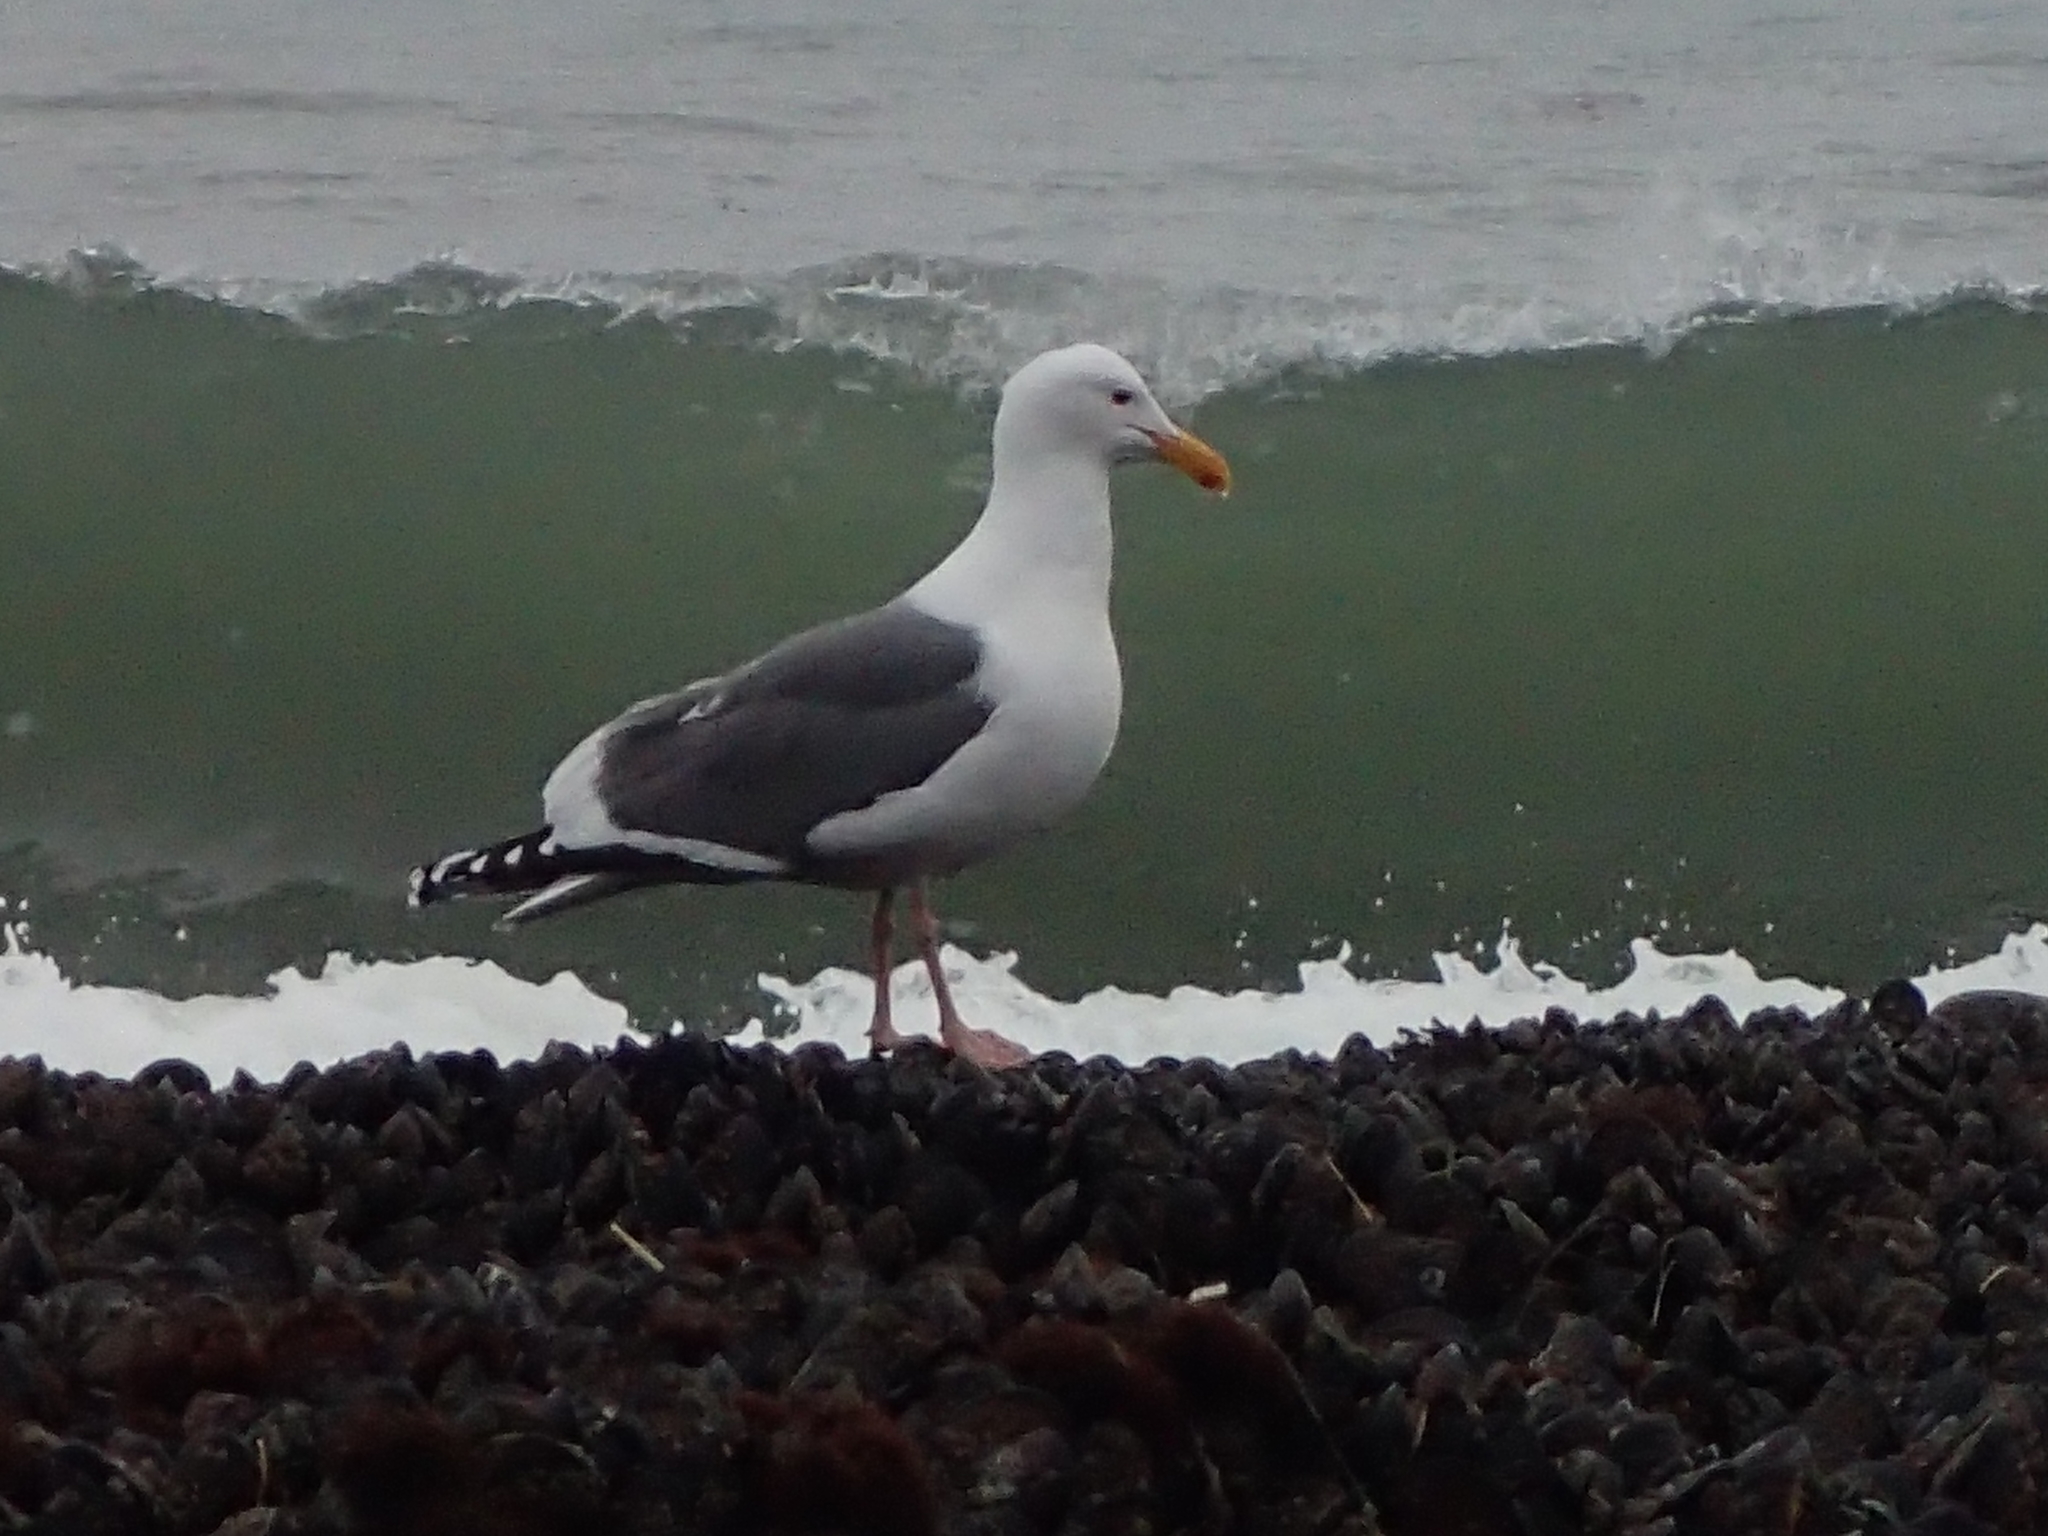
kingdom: Animalia
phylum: Chordata
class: Aves
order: Charadriiformes
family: Laridae
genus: Larus
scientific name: Larus occidentalis
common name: Western gull
